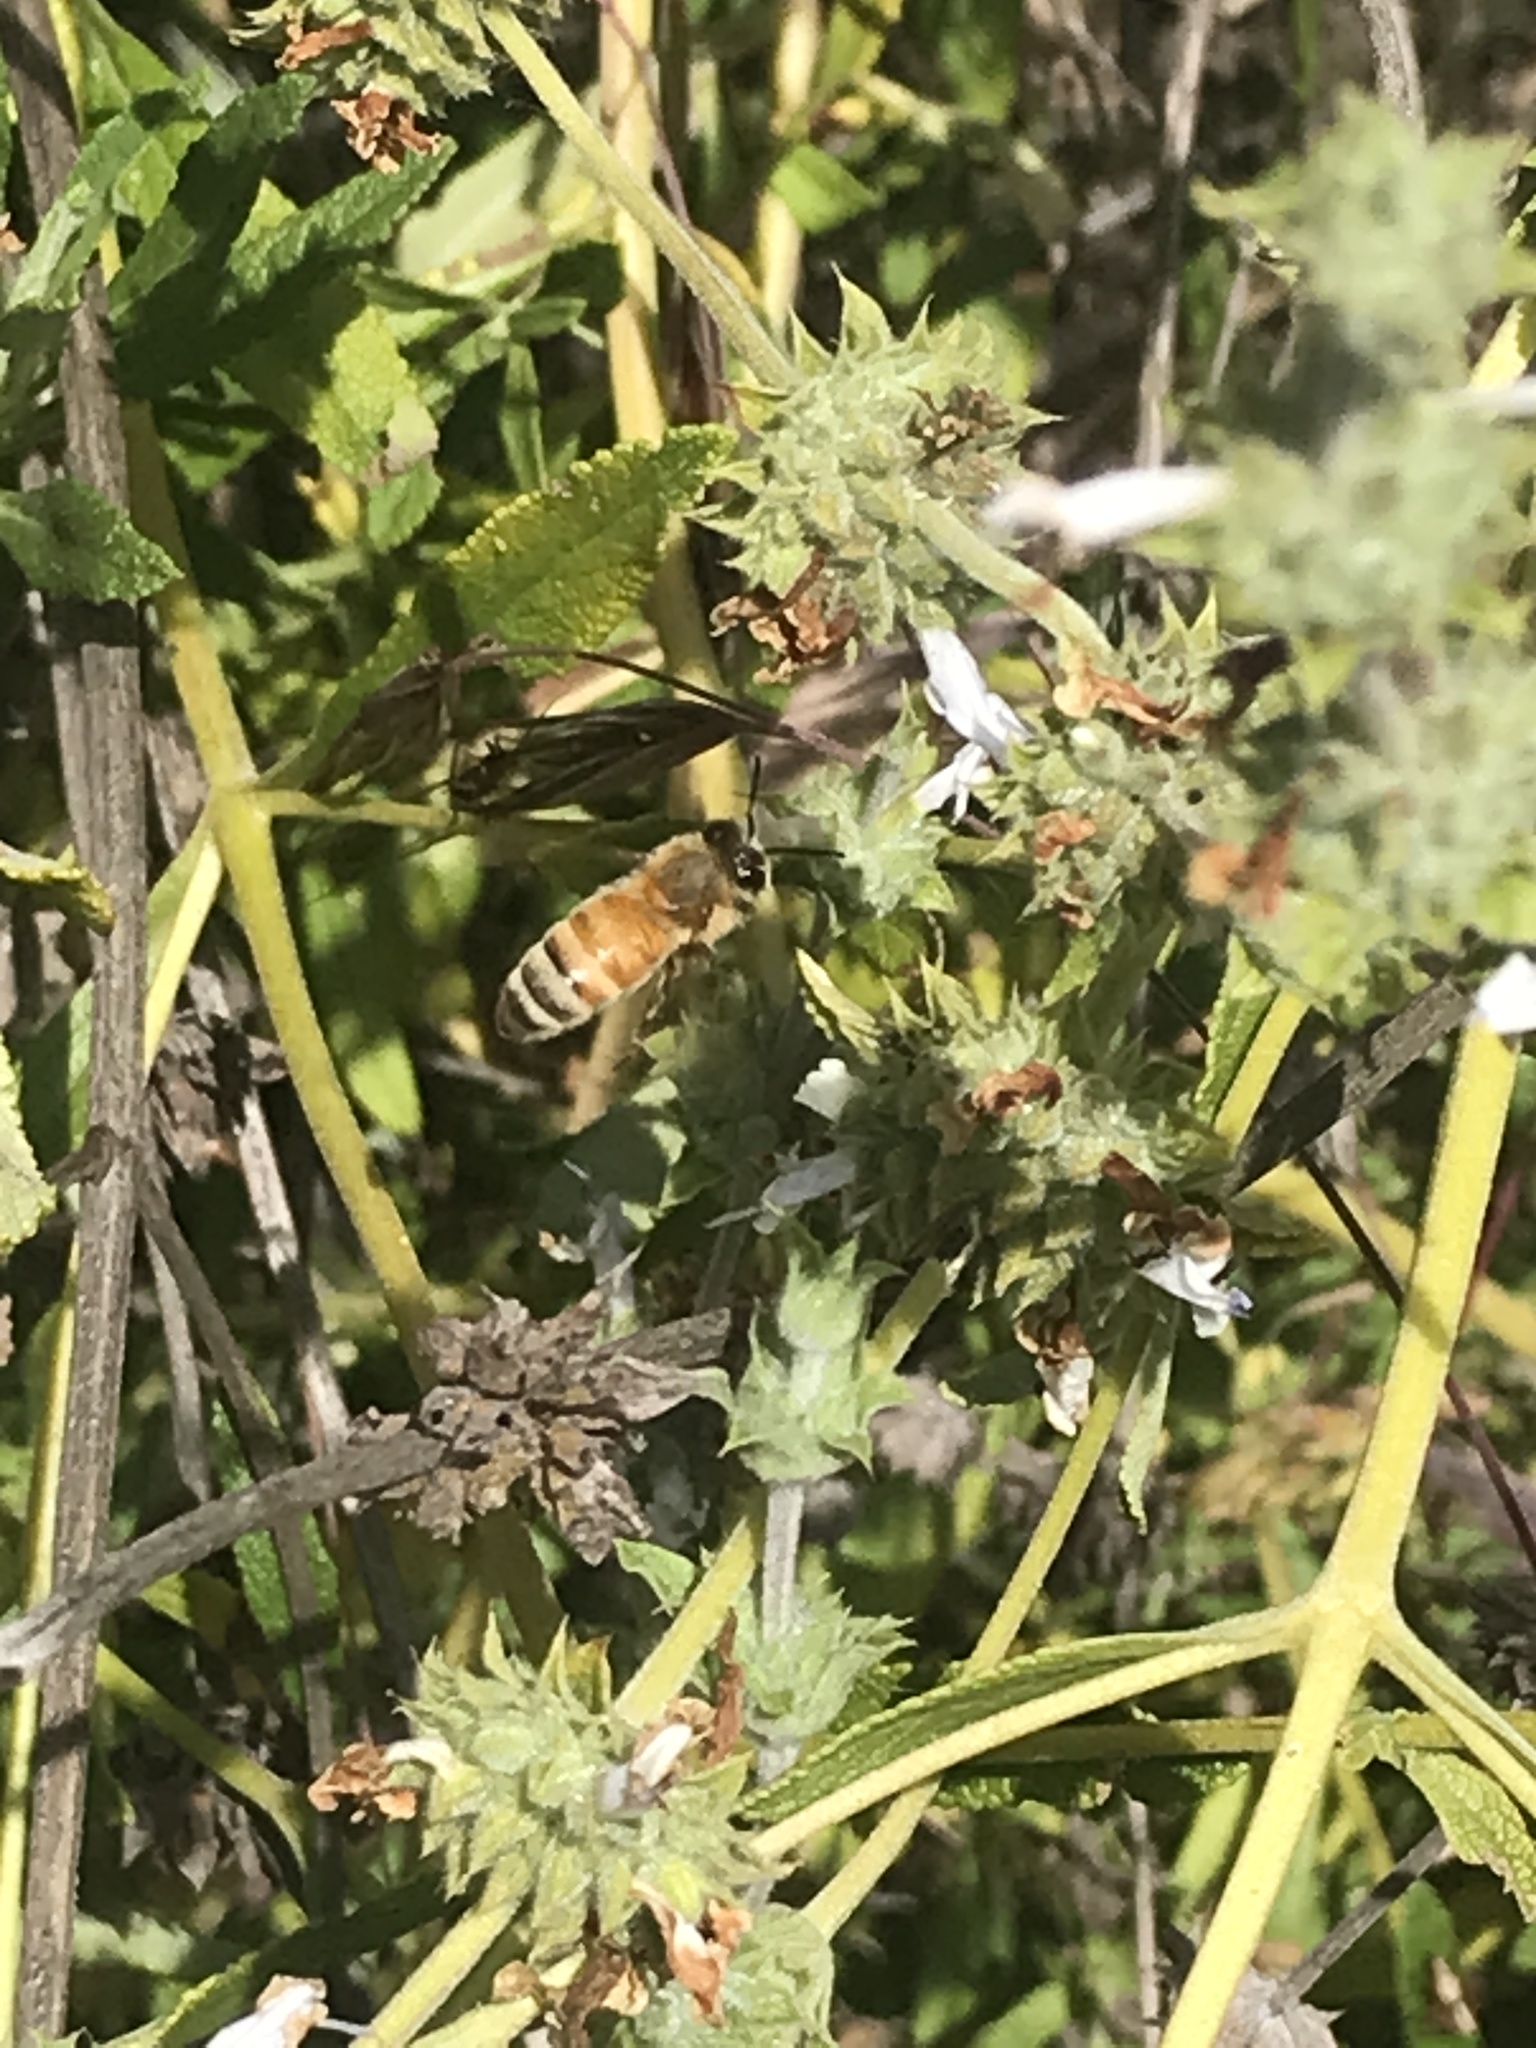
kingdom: Animalia
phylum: Arthropoda
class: Insecta
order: Hymenoptera
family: Apidae
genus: Apis
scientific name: Apis mellifera
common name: Honey bee
